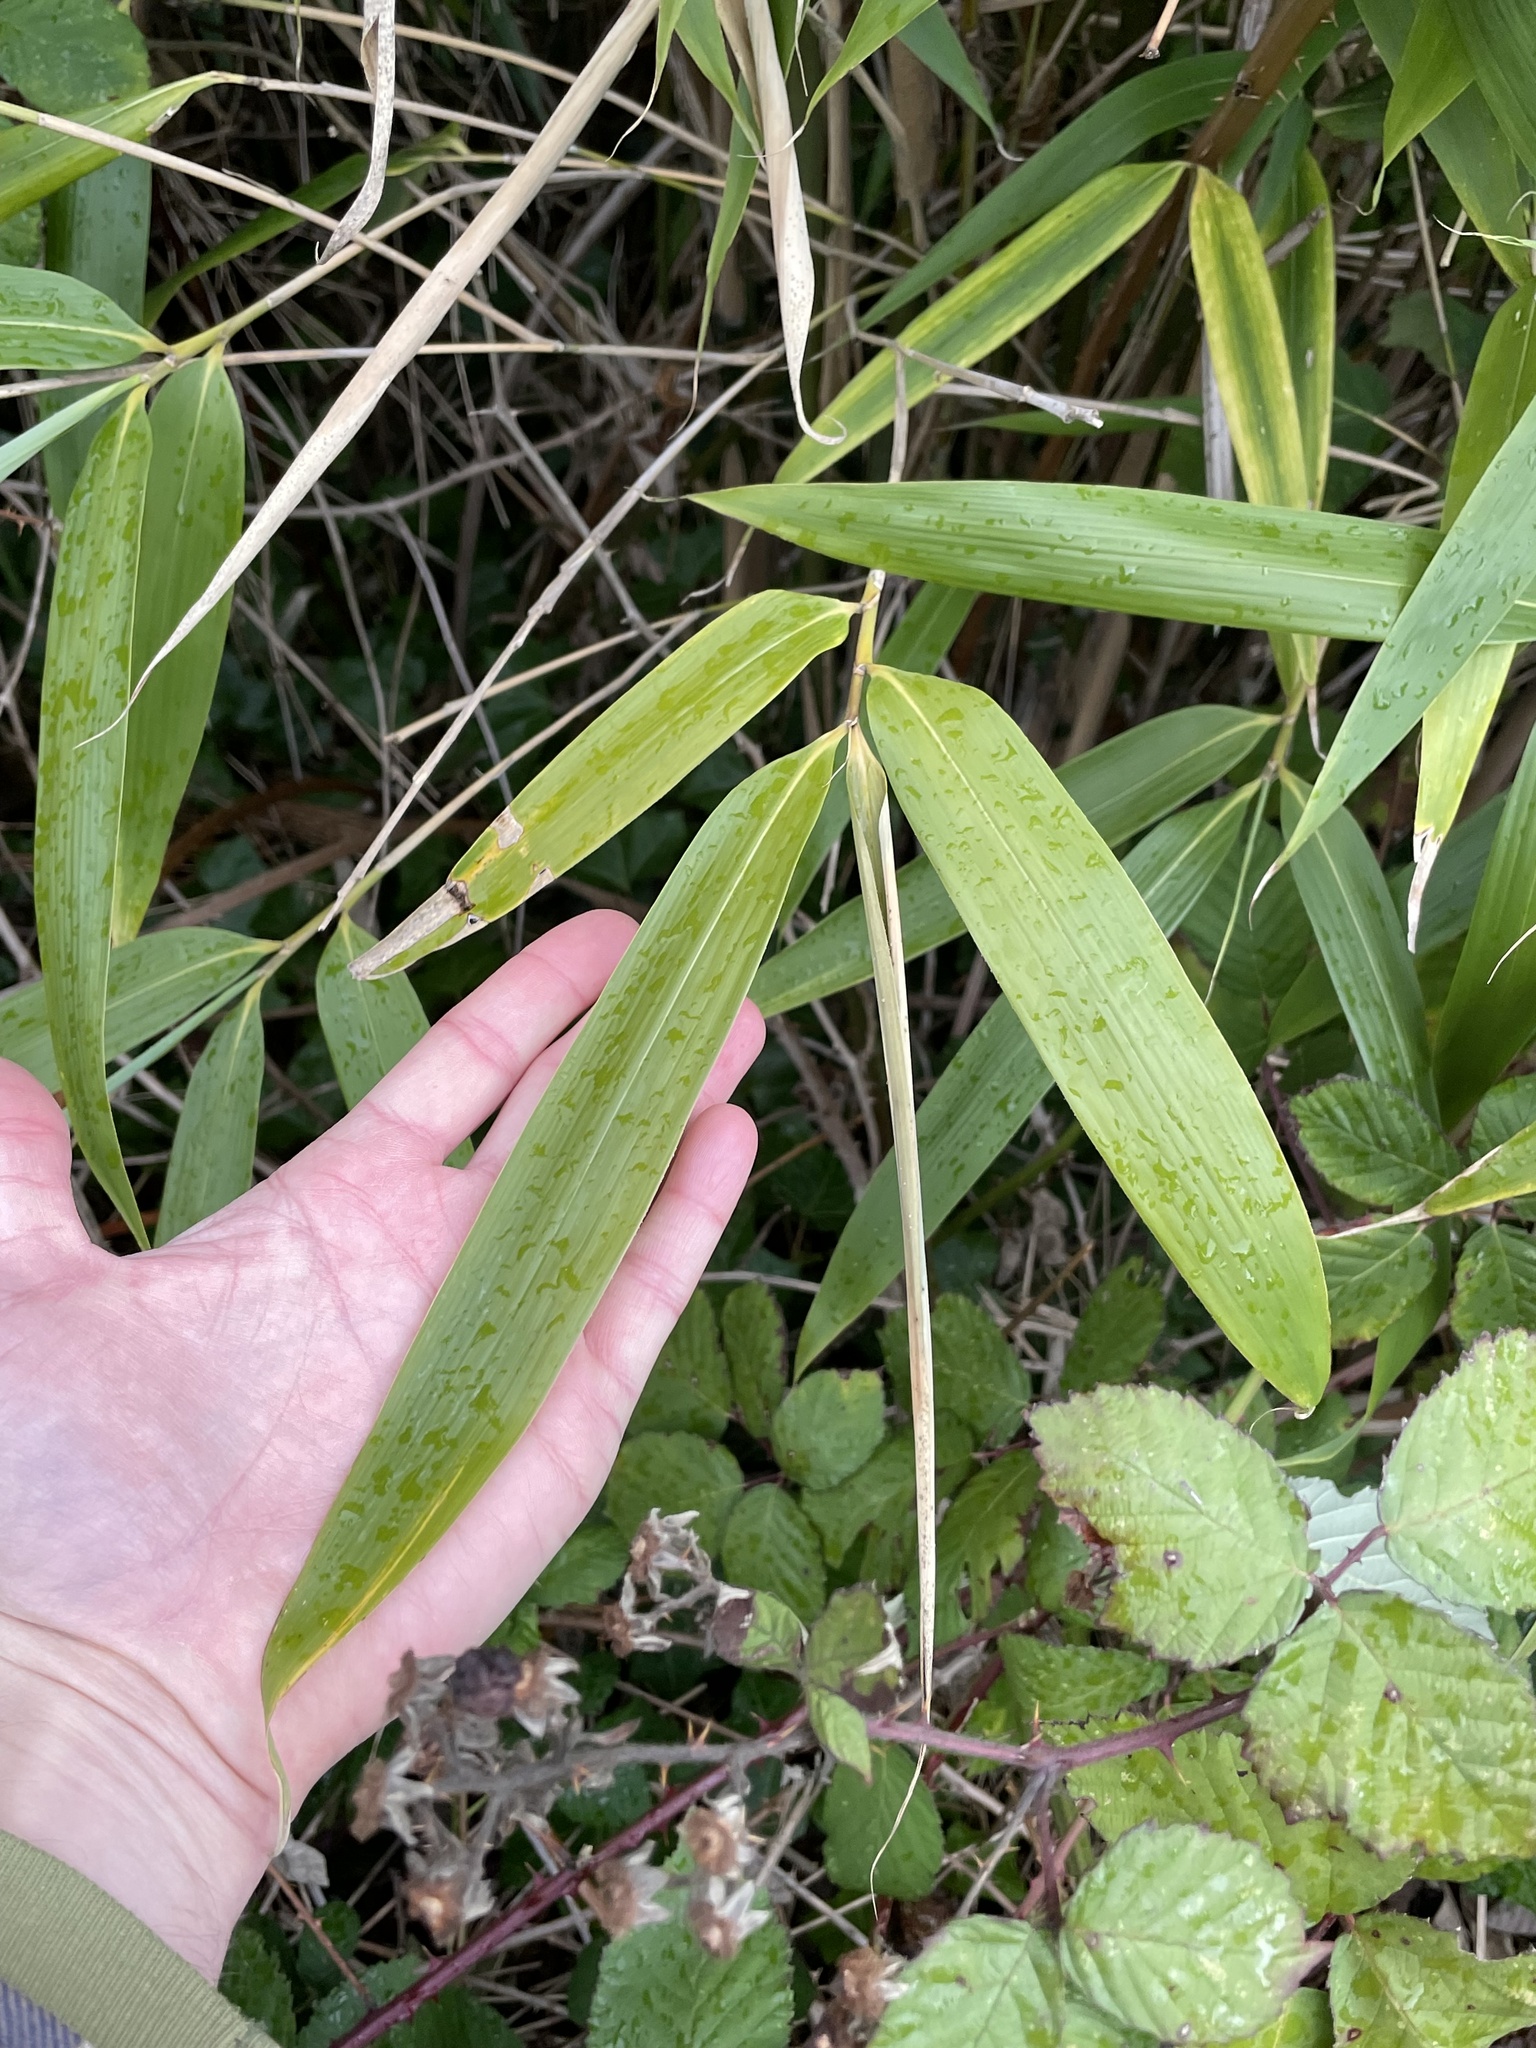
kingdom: Plantae
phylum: Tracheophyta
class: Liliopsida
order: Poales
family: Poaceae
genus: Pseudosasa
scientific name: Pseudosasa japonica
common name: Arrow bamboo
